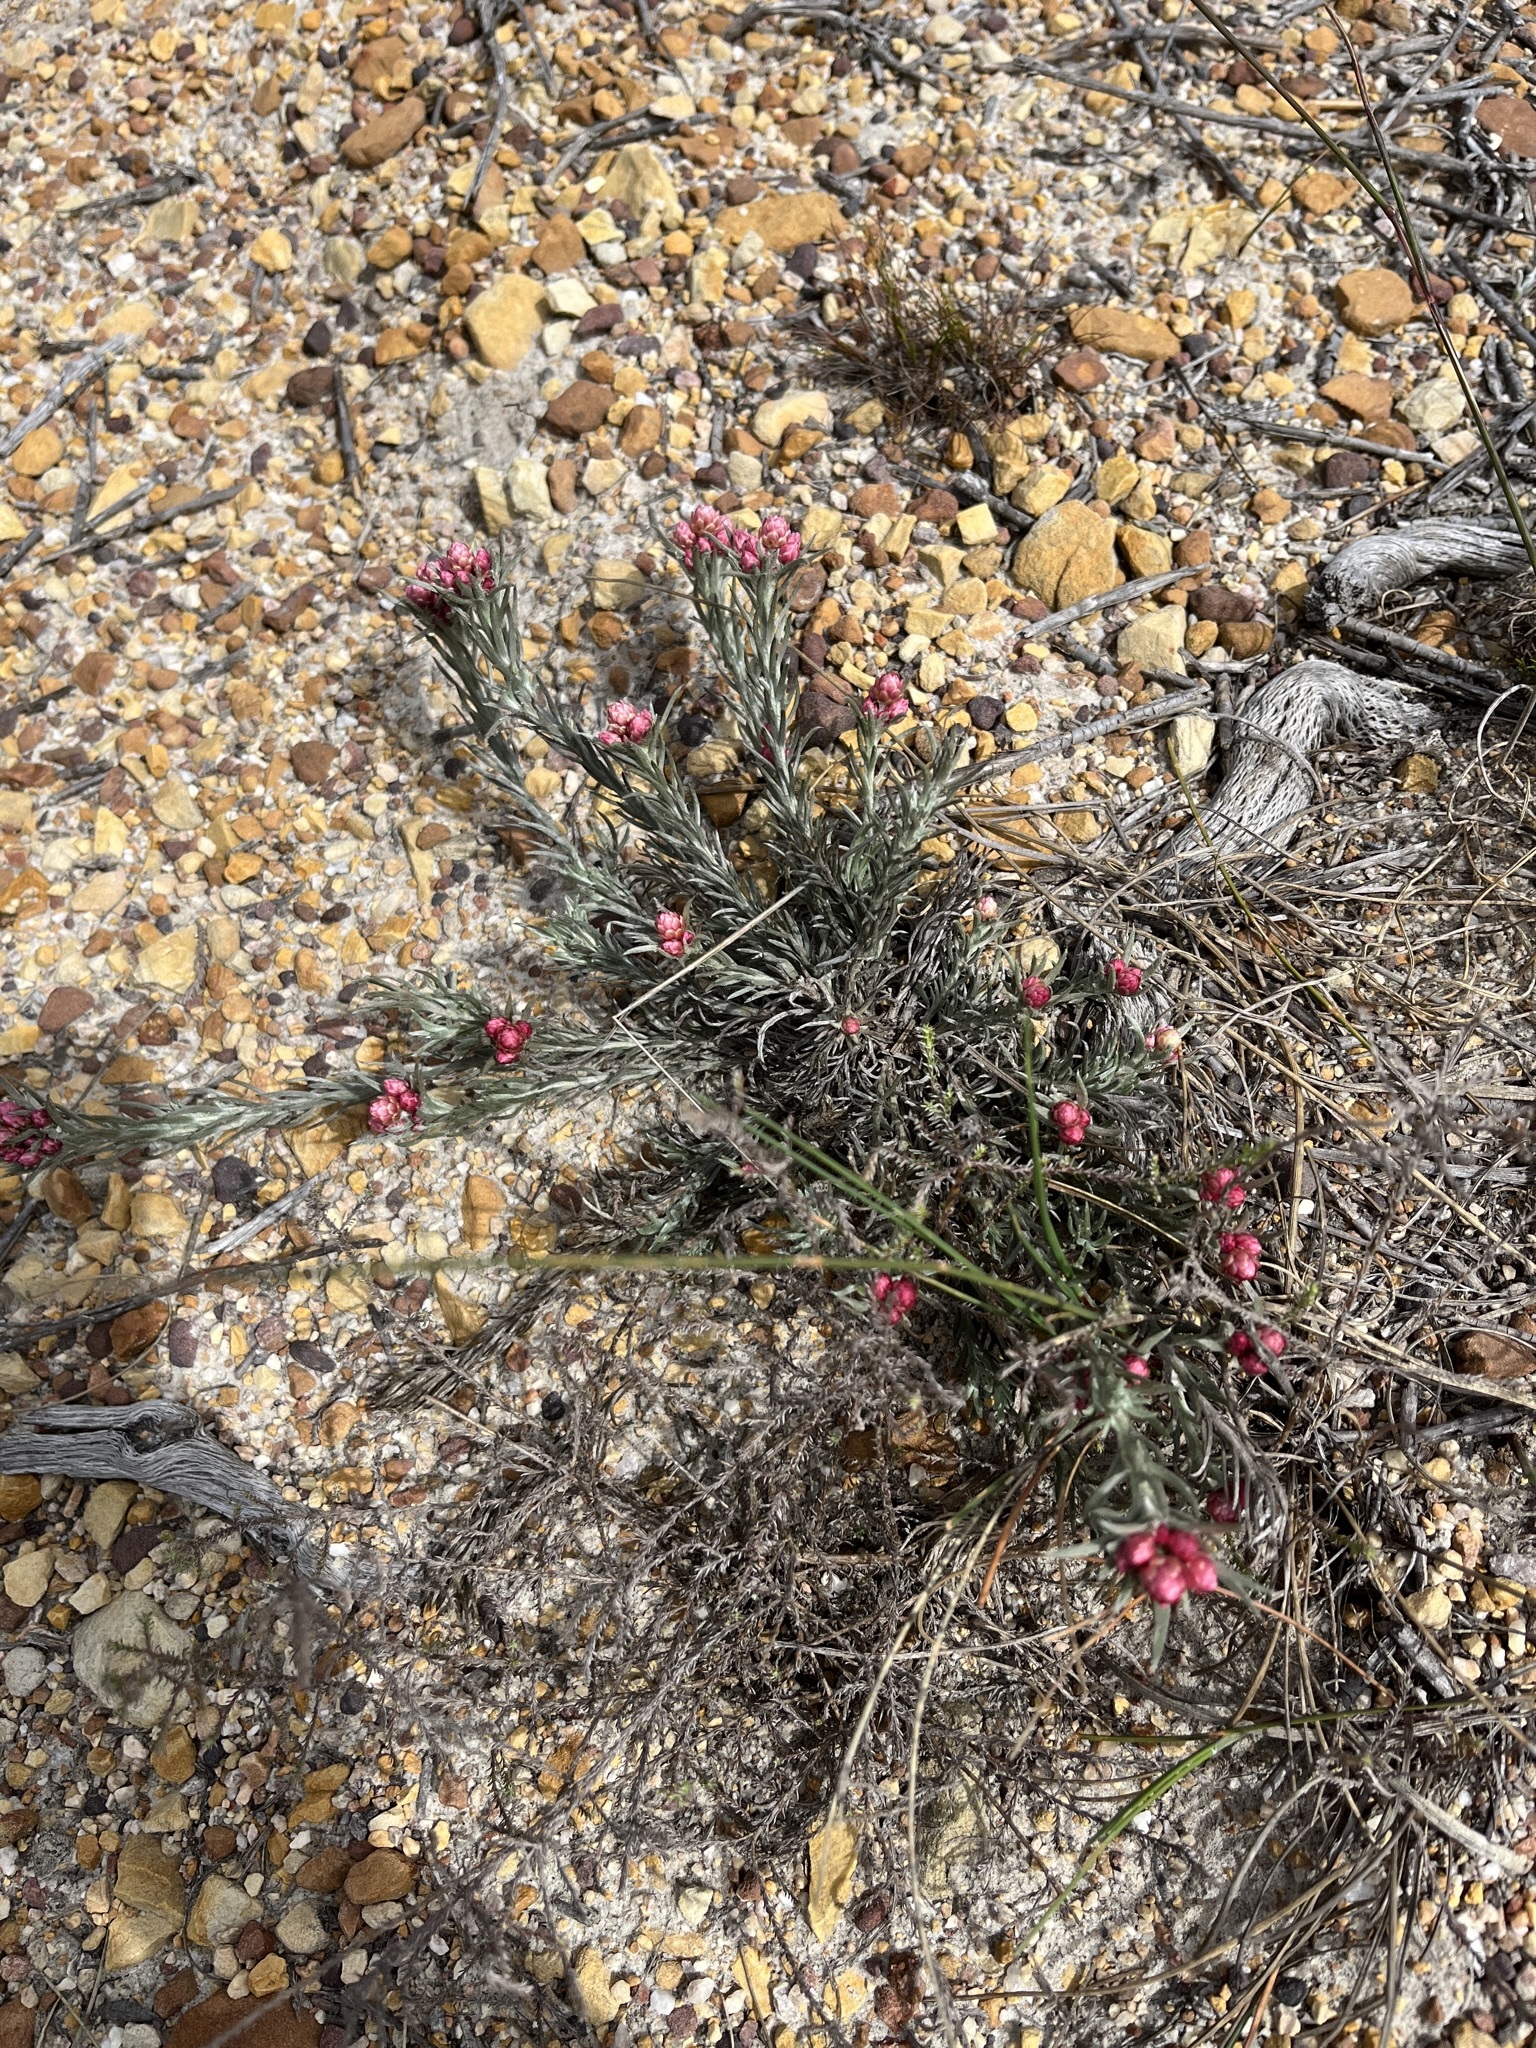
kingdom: Plantae
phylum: Tracheophyta
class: Magnoliopsida
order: Asterales
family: Asteraceae
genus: Achyranthemum
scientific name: Achyranthemum paniculatum
